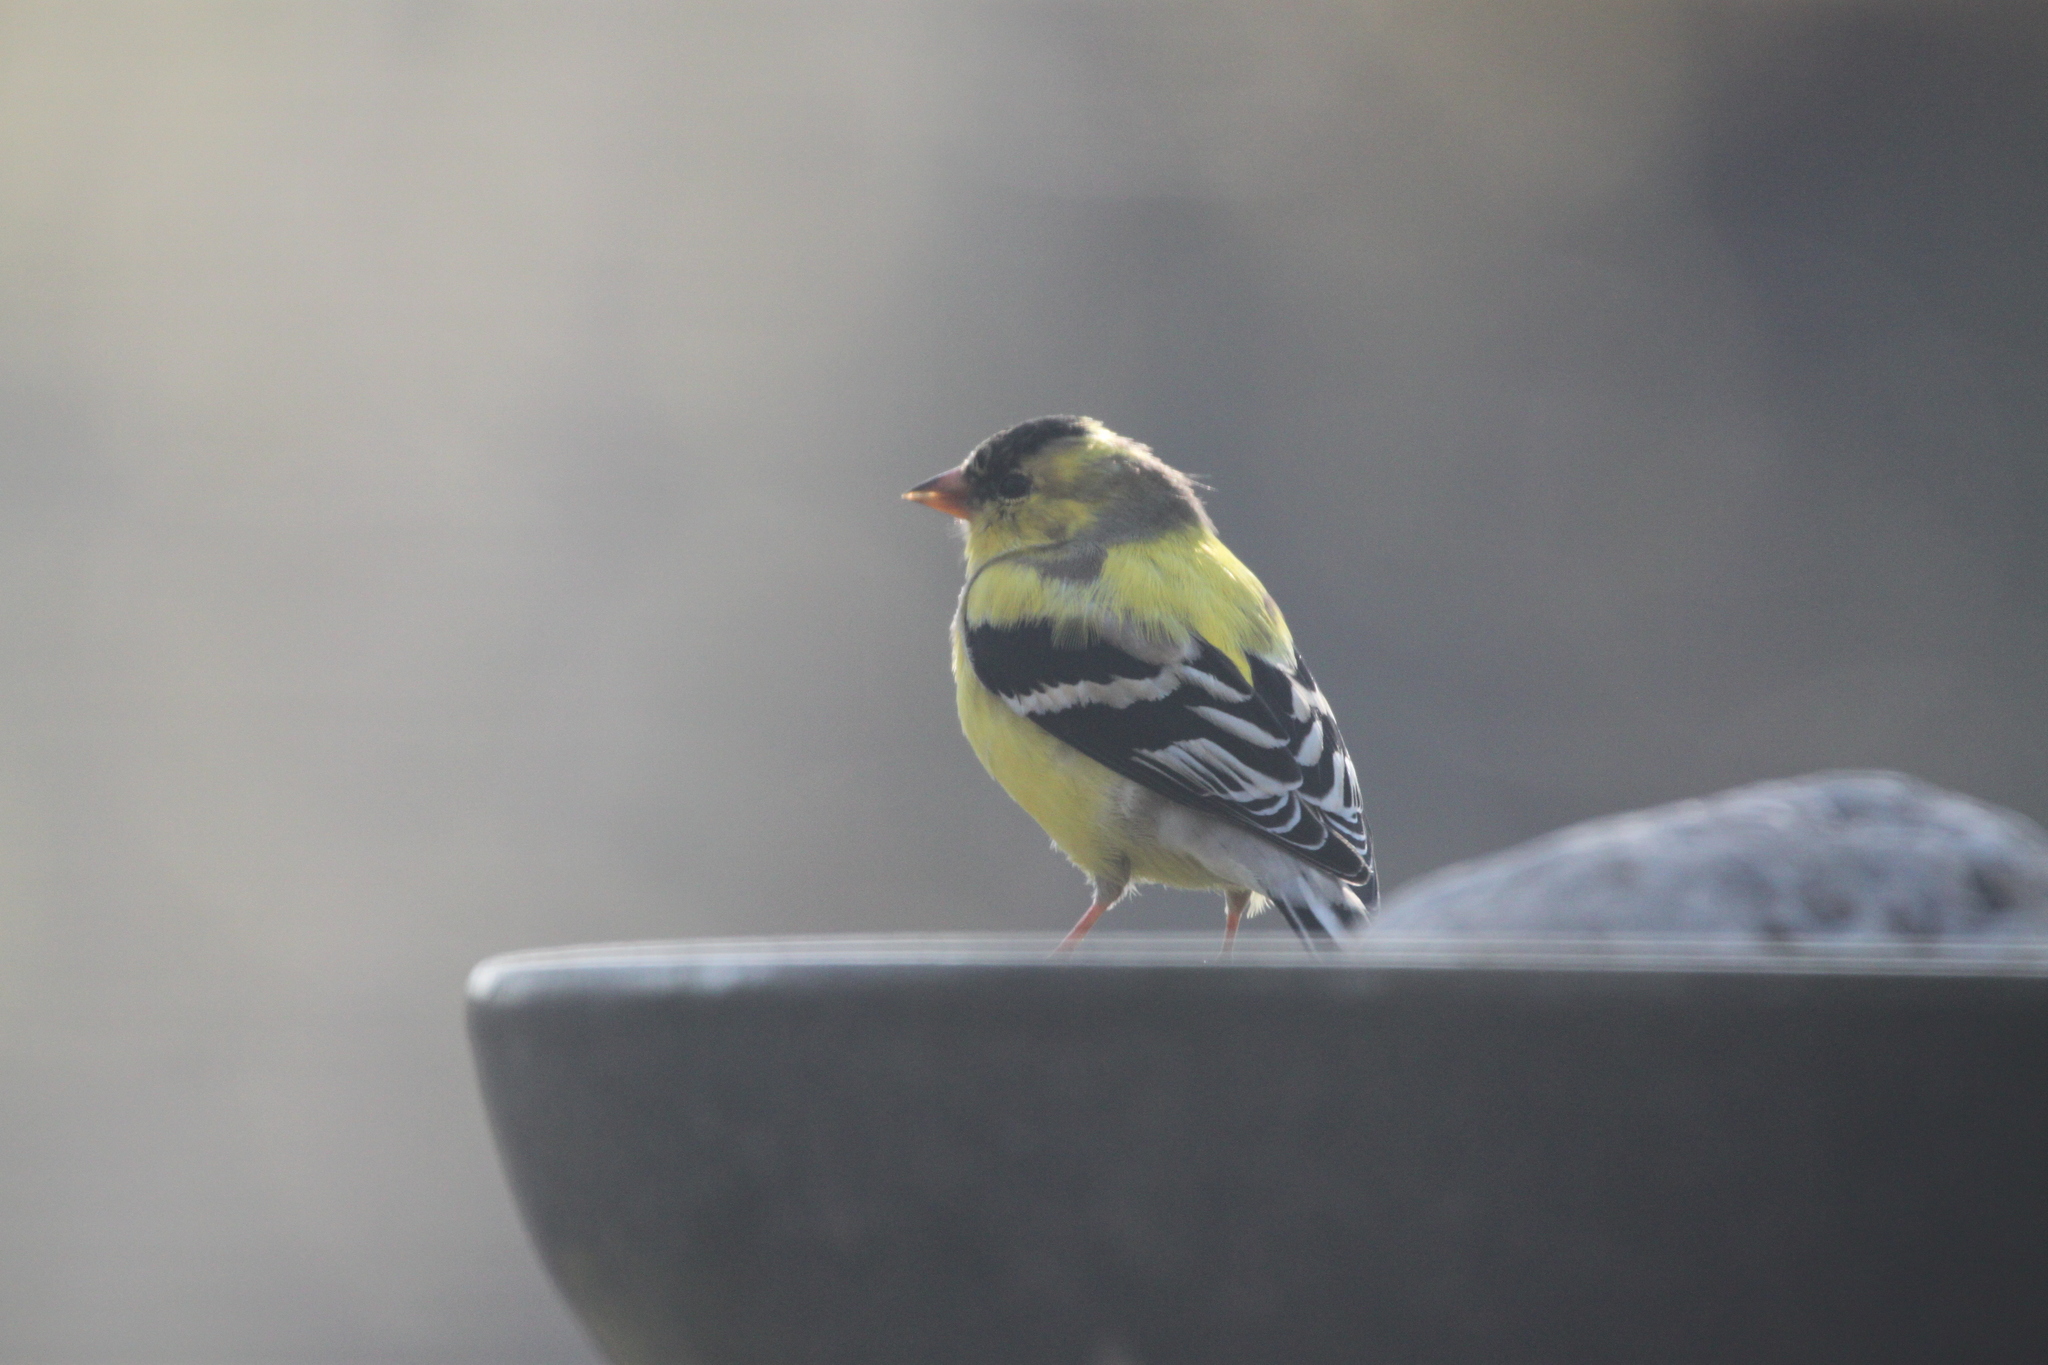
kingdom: Animalia
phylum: Chordata
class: Aves
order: Passeriformes
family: Fringillidae
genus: Spinus
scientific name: Spinus tristis
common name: American goldfinch
